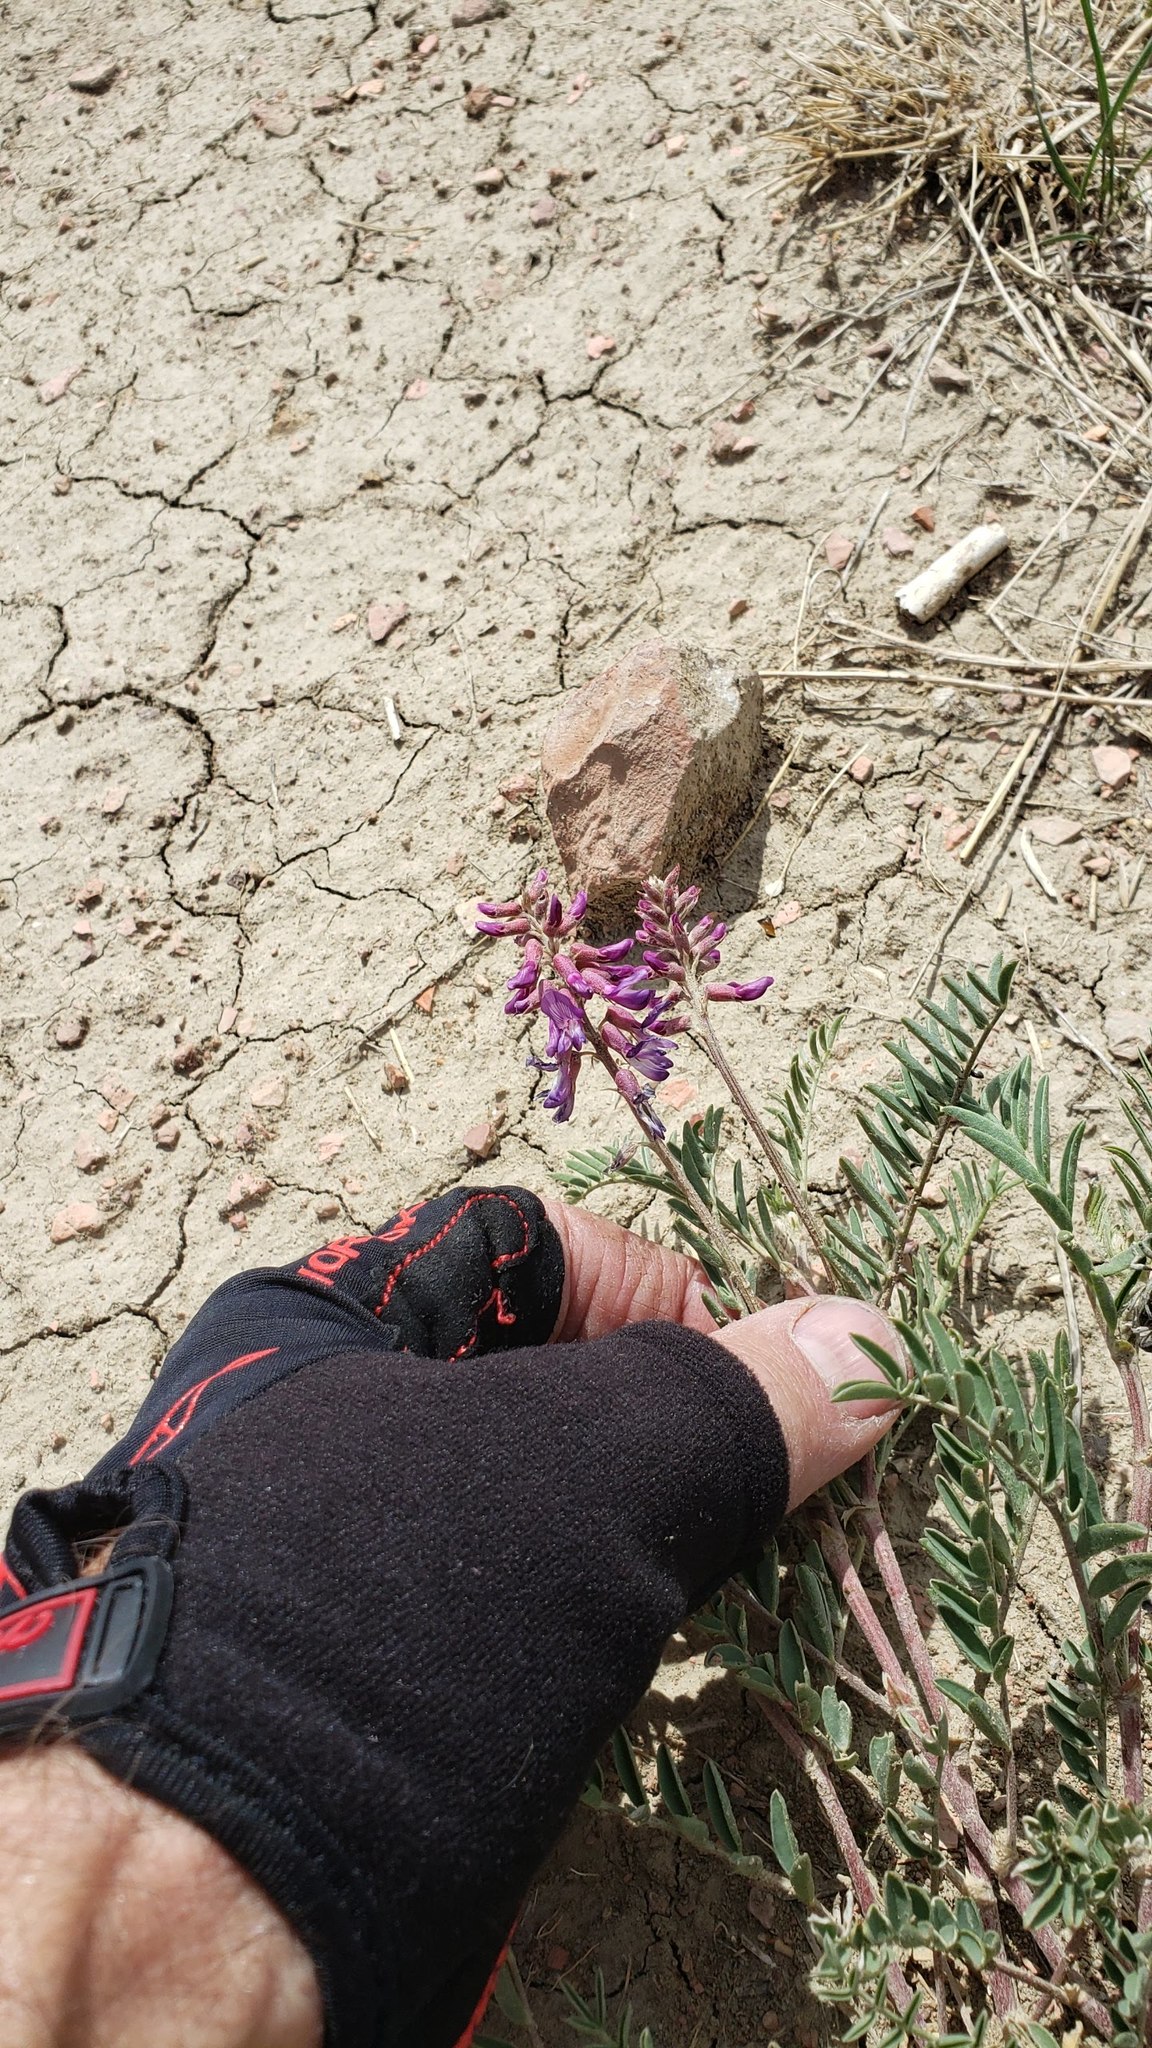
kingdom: Plantae
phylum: Tracheophyta
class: Magnoliopsida
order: Fabales
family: Fabaceae
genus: Astragalus
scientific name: Astragalus bisulcatus
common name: Two-groove milk-vetch
